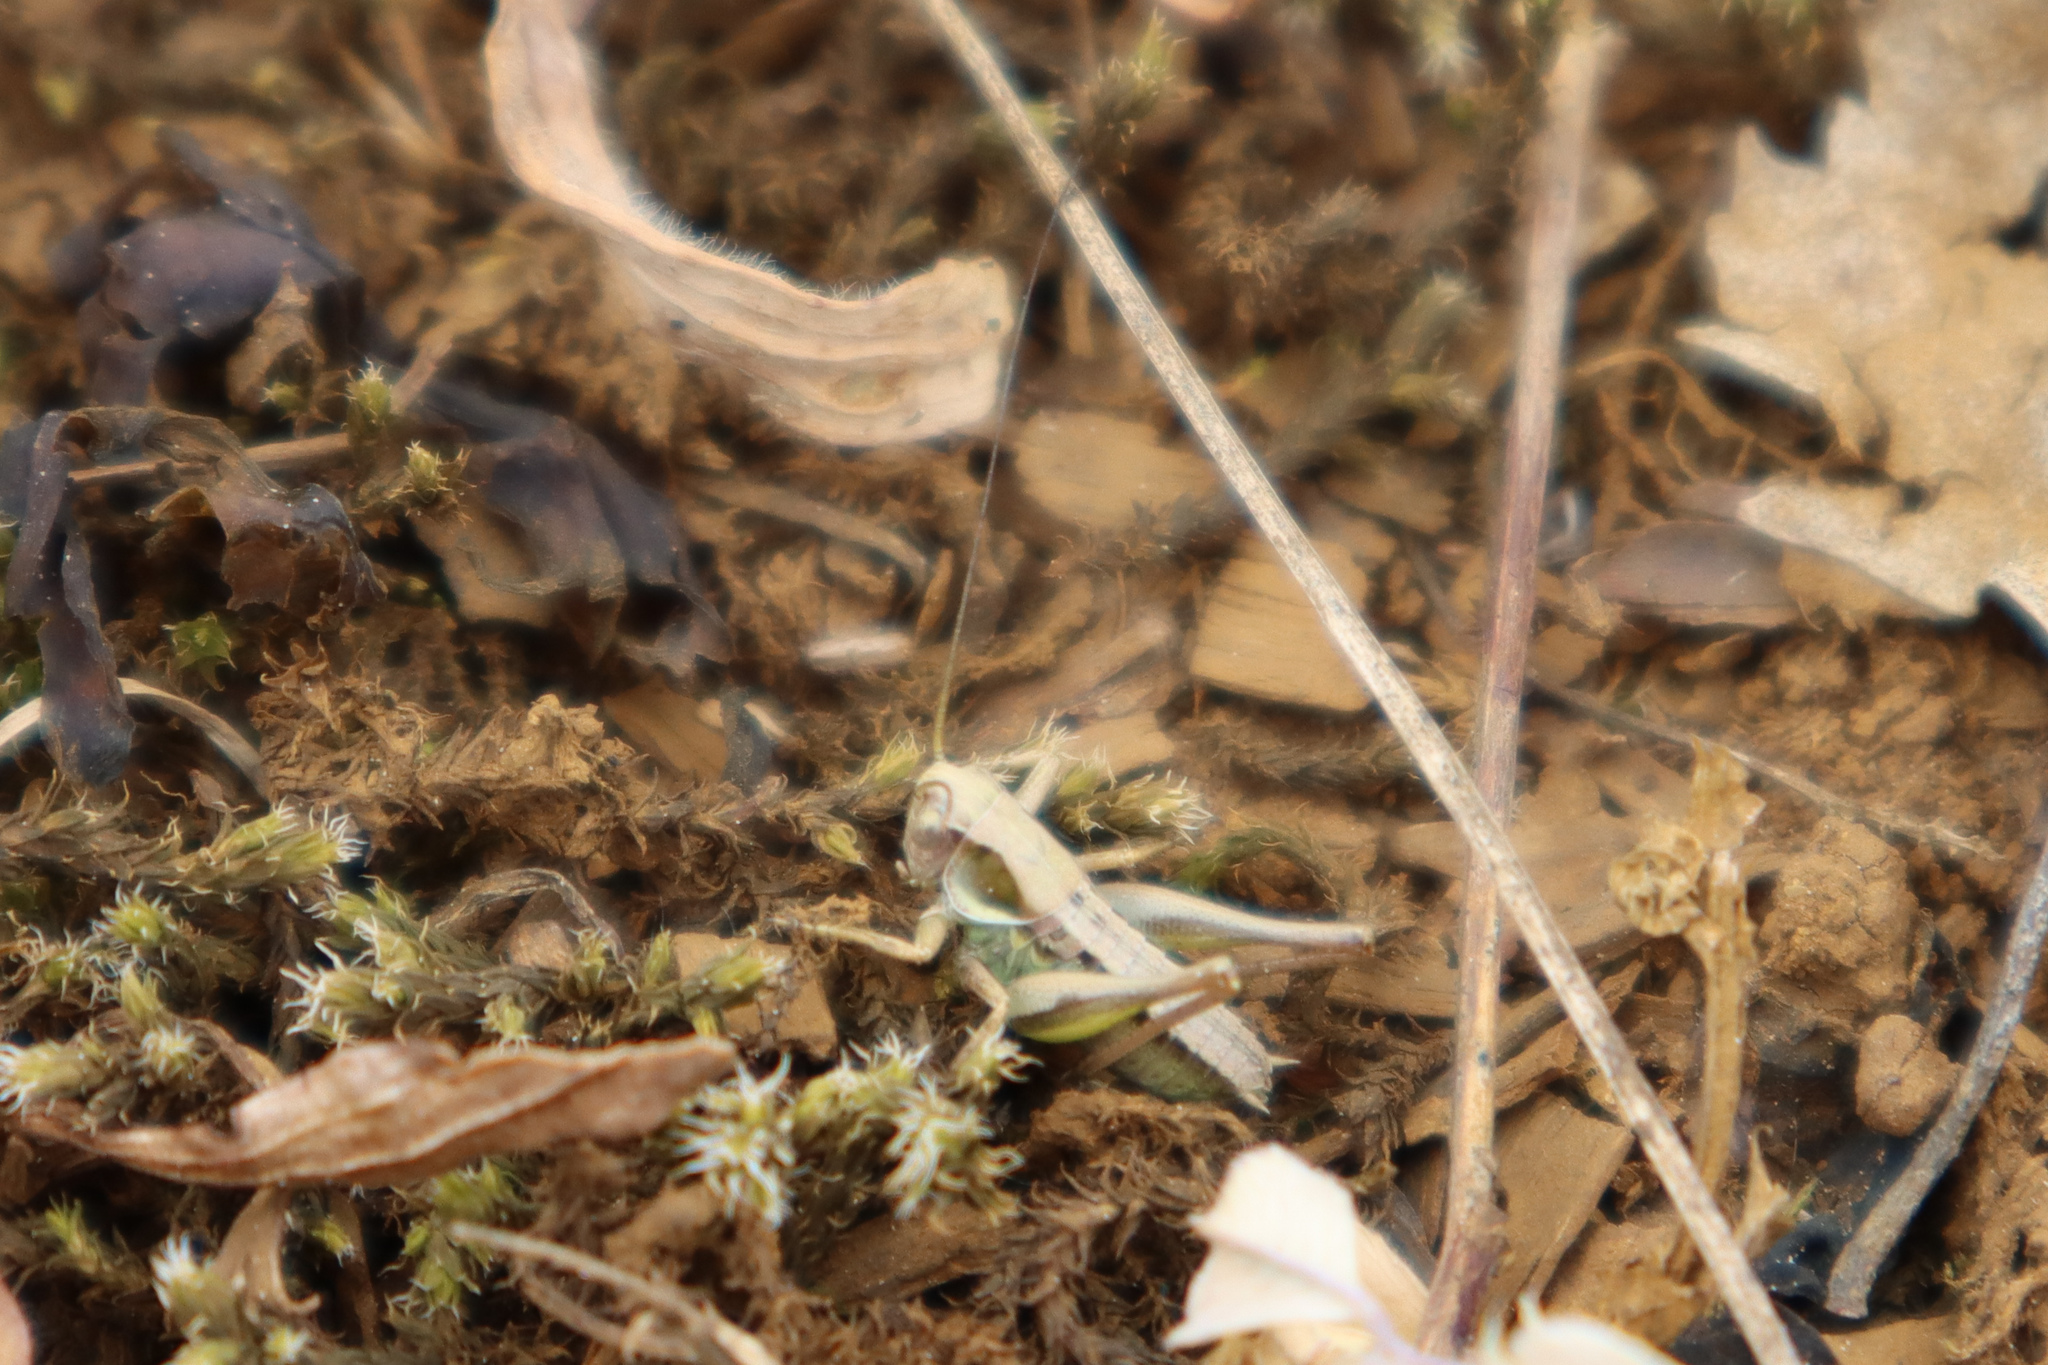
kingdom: Animalia
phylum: Arthropoda
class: Insecta
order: Orthoptera
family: Tettigoniidae
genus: Platycleis
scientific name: Platycleis albopunctata
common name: Grey bush-cricket
